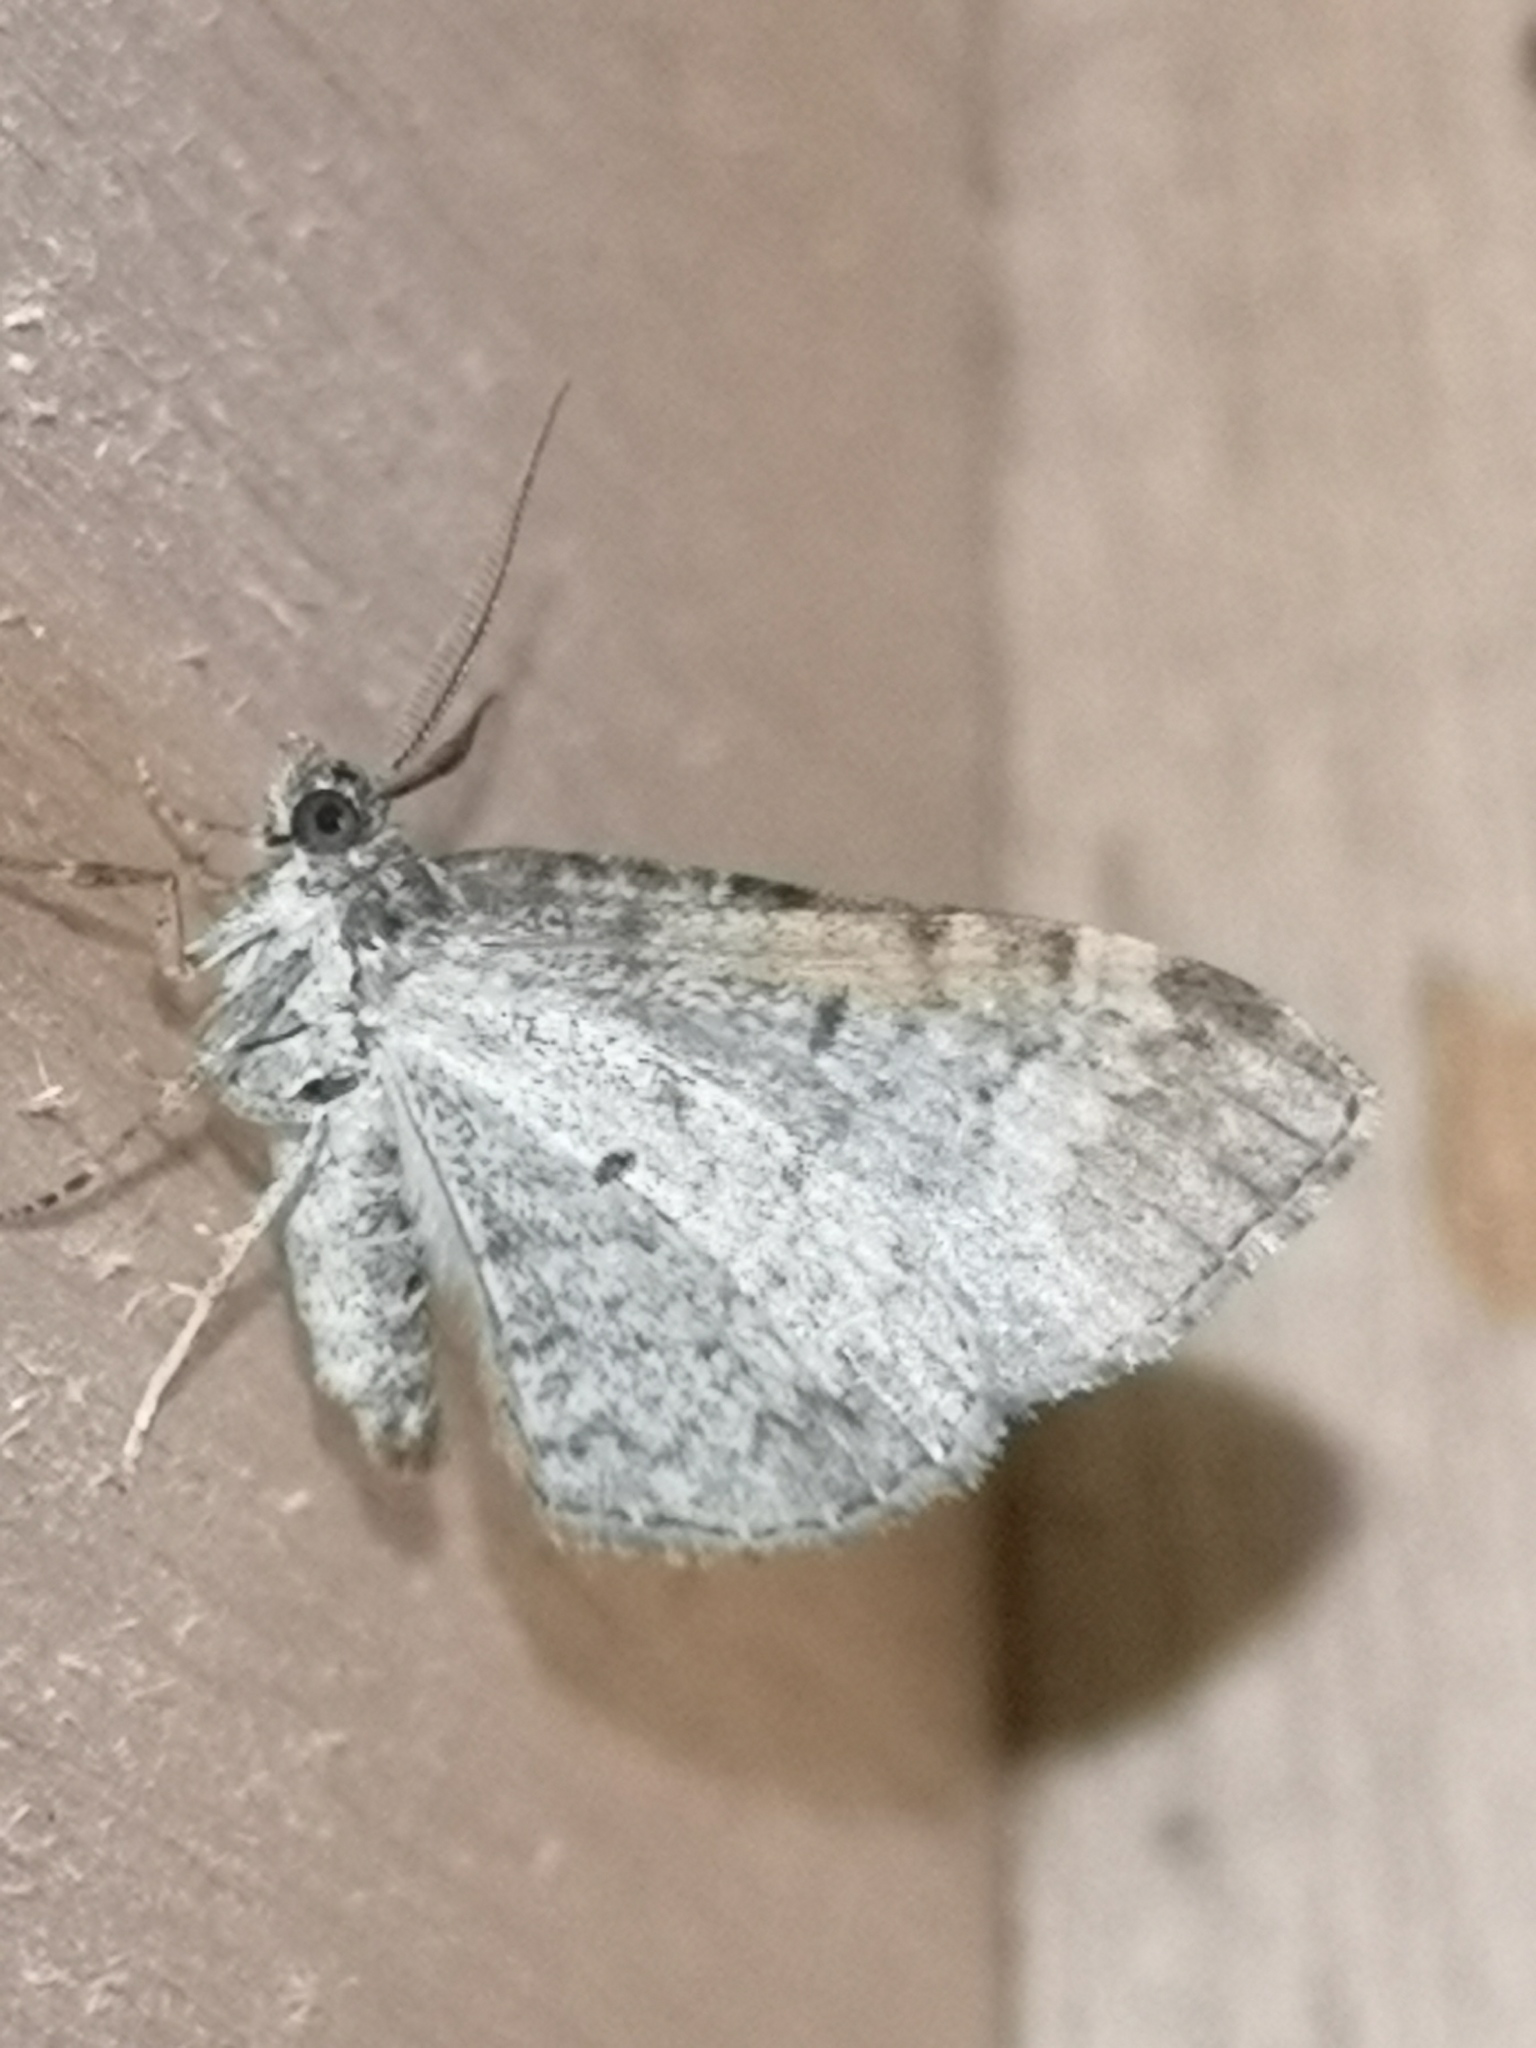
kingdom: Animalia
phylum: Arthropoda
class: Insecta
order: Lepidoptera
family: Geometridae
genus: Xanthorhoe
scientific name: Xanthorhoe ferrugata
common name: Dark-barred twin-spot carpet
